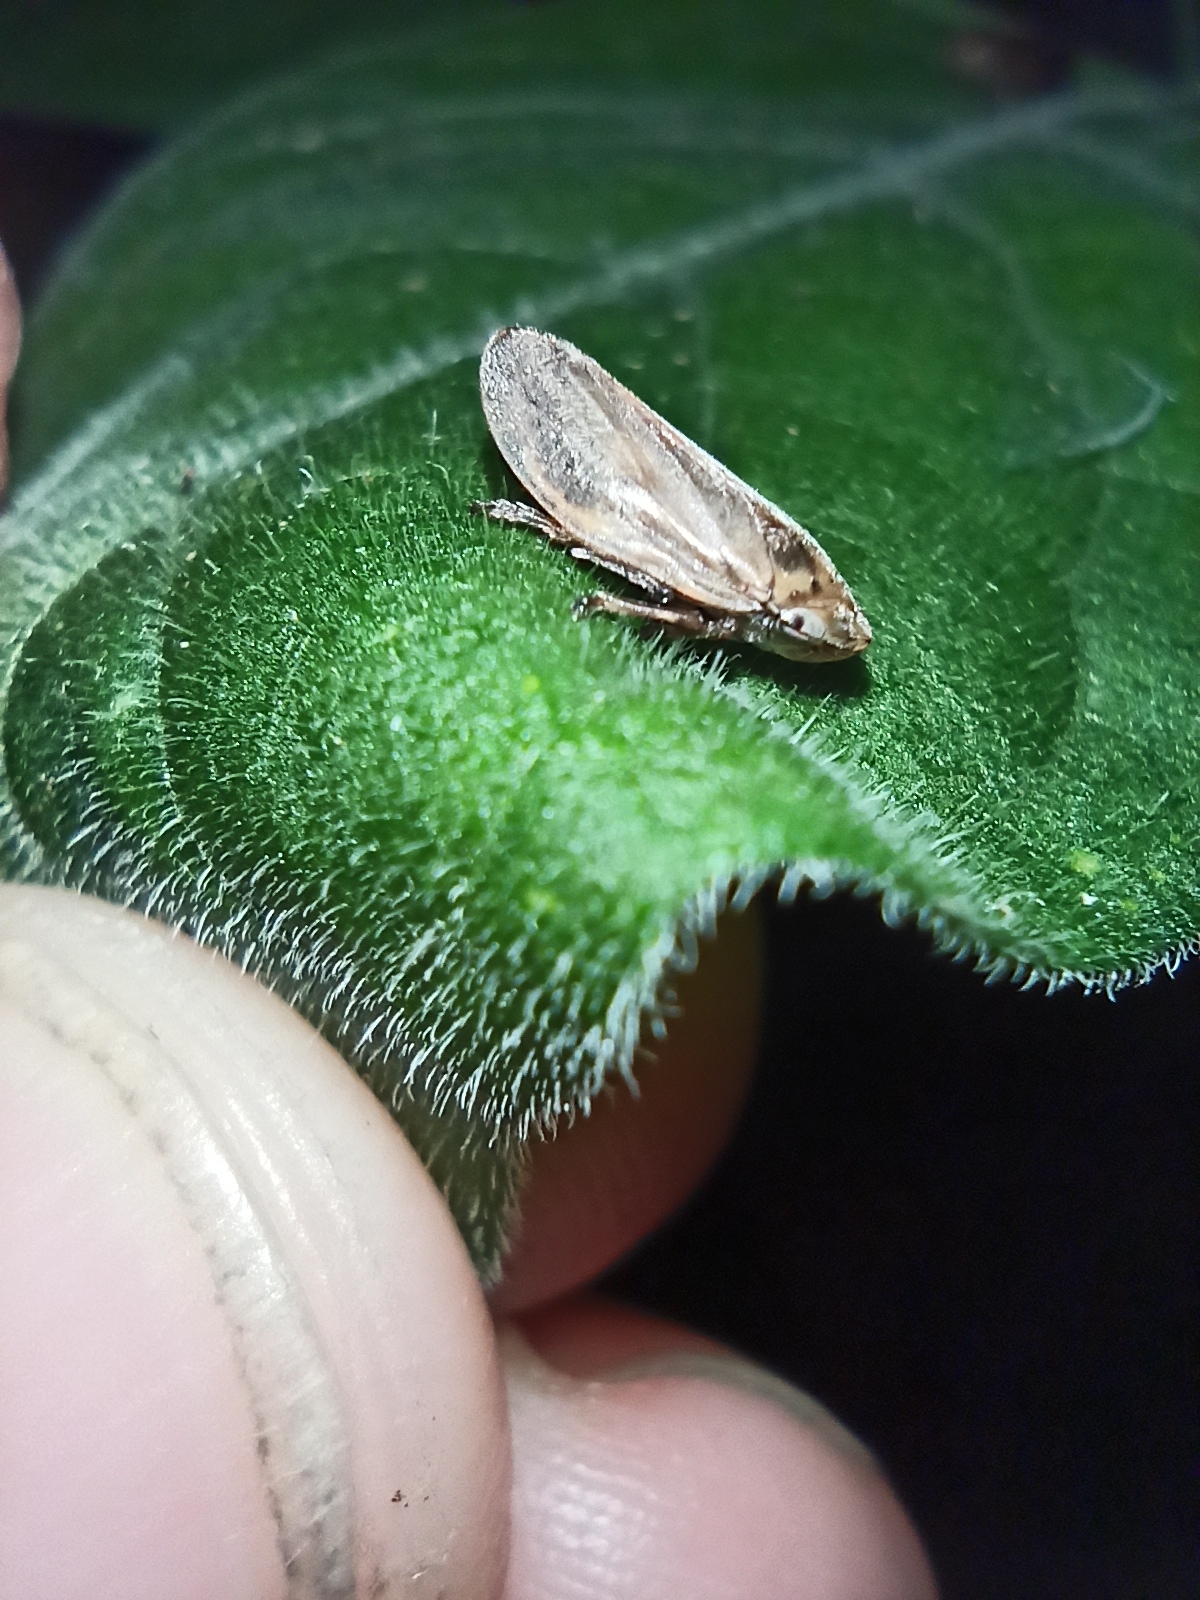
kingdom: Animalia
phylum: Arthropoda
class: Insecta
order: Hemiptera
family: Aphrophoridae
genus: Philaenus
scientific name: Philaenus spumarius
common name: Meadow spittlebug
